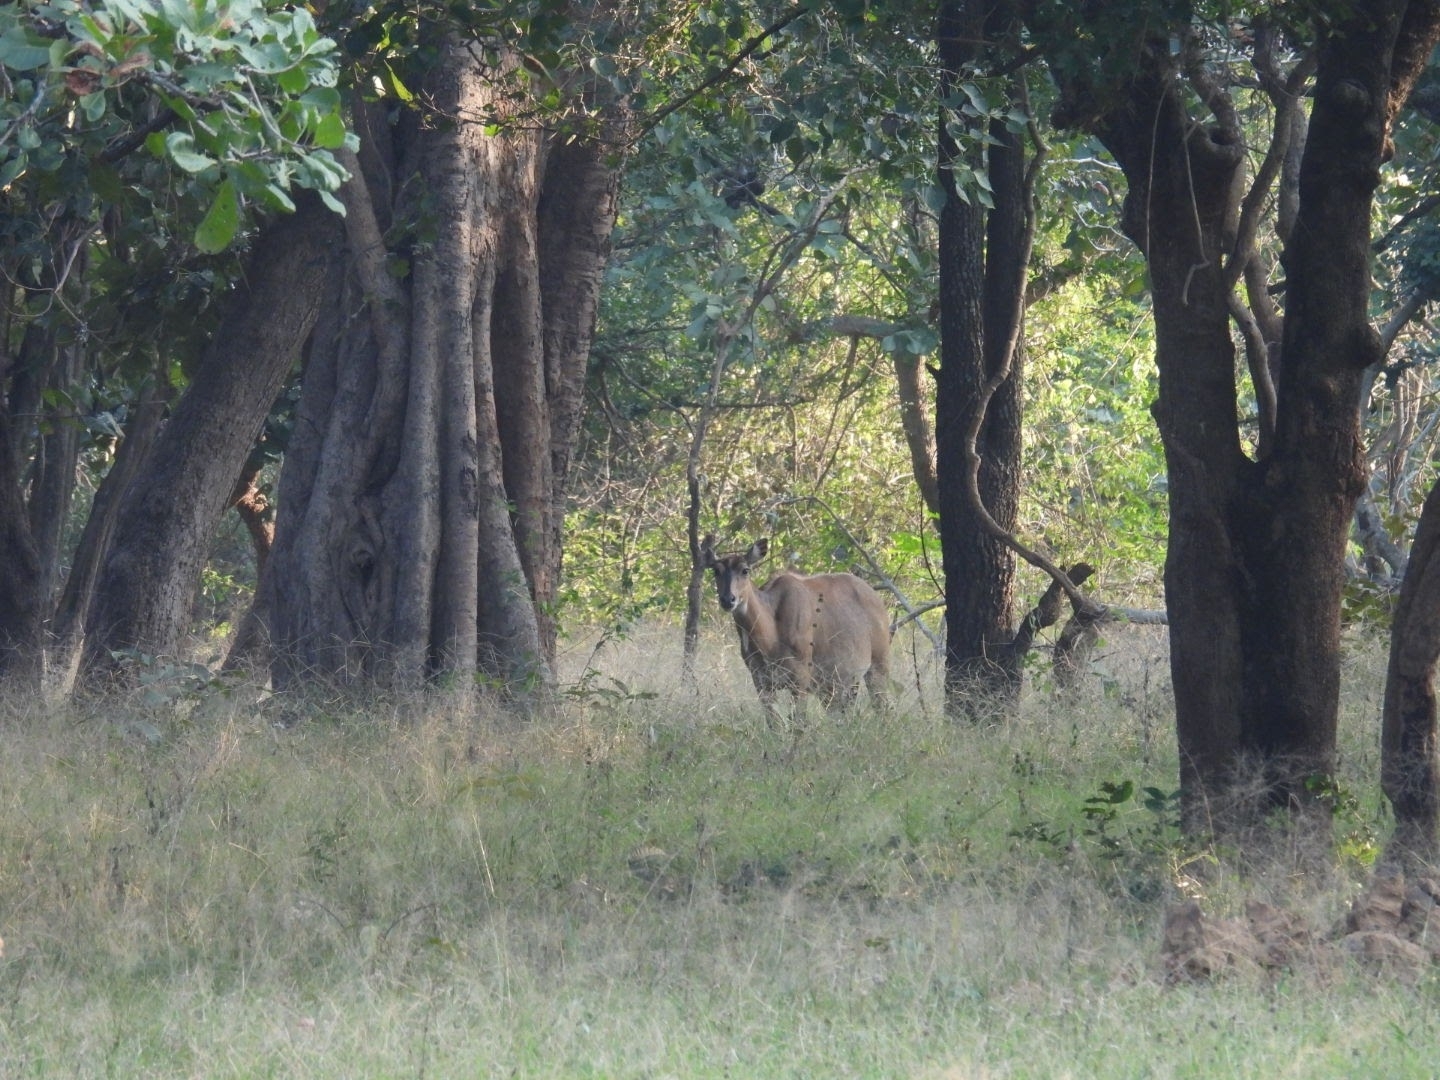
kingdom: Animalia
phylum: Chordata
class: Mammalia
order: Artiodactyla
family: Bovidae
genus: Boselaphus
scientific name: Boselaphus tragocamelus
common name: Nilgai
